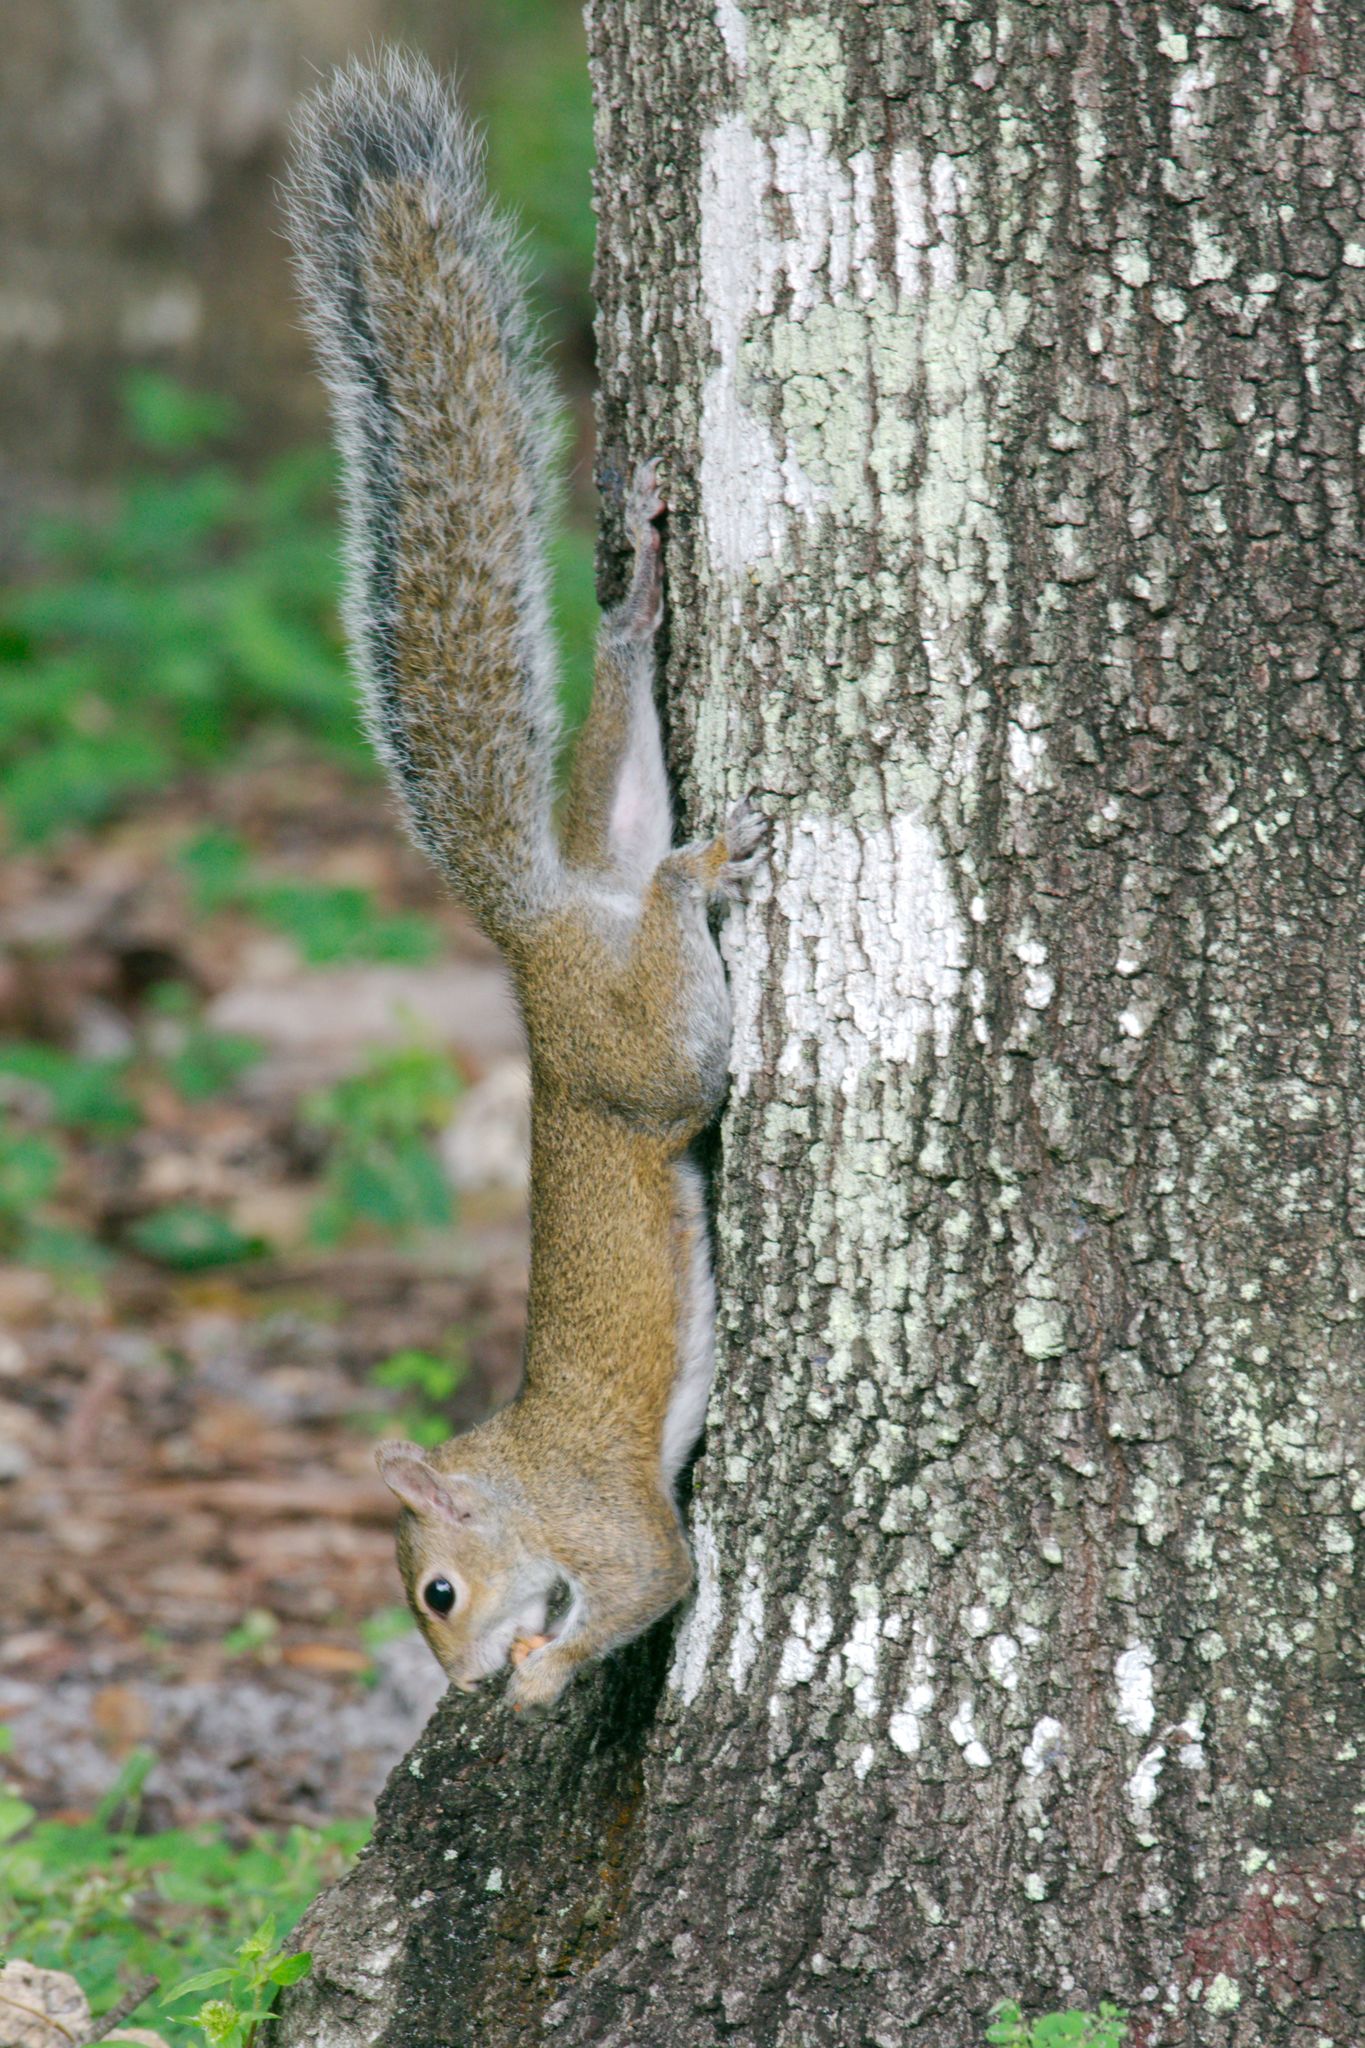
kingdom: Animalia
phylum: Chordata
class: Mammalia
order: Rodentia
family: Sciuridae
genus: Sciurus
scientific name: Sciurus carolinensis
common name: Eastern gray squirrel
